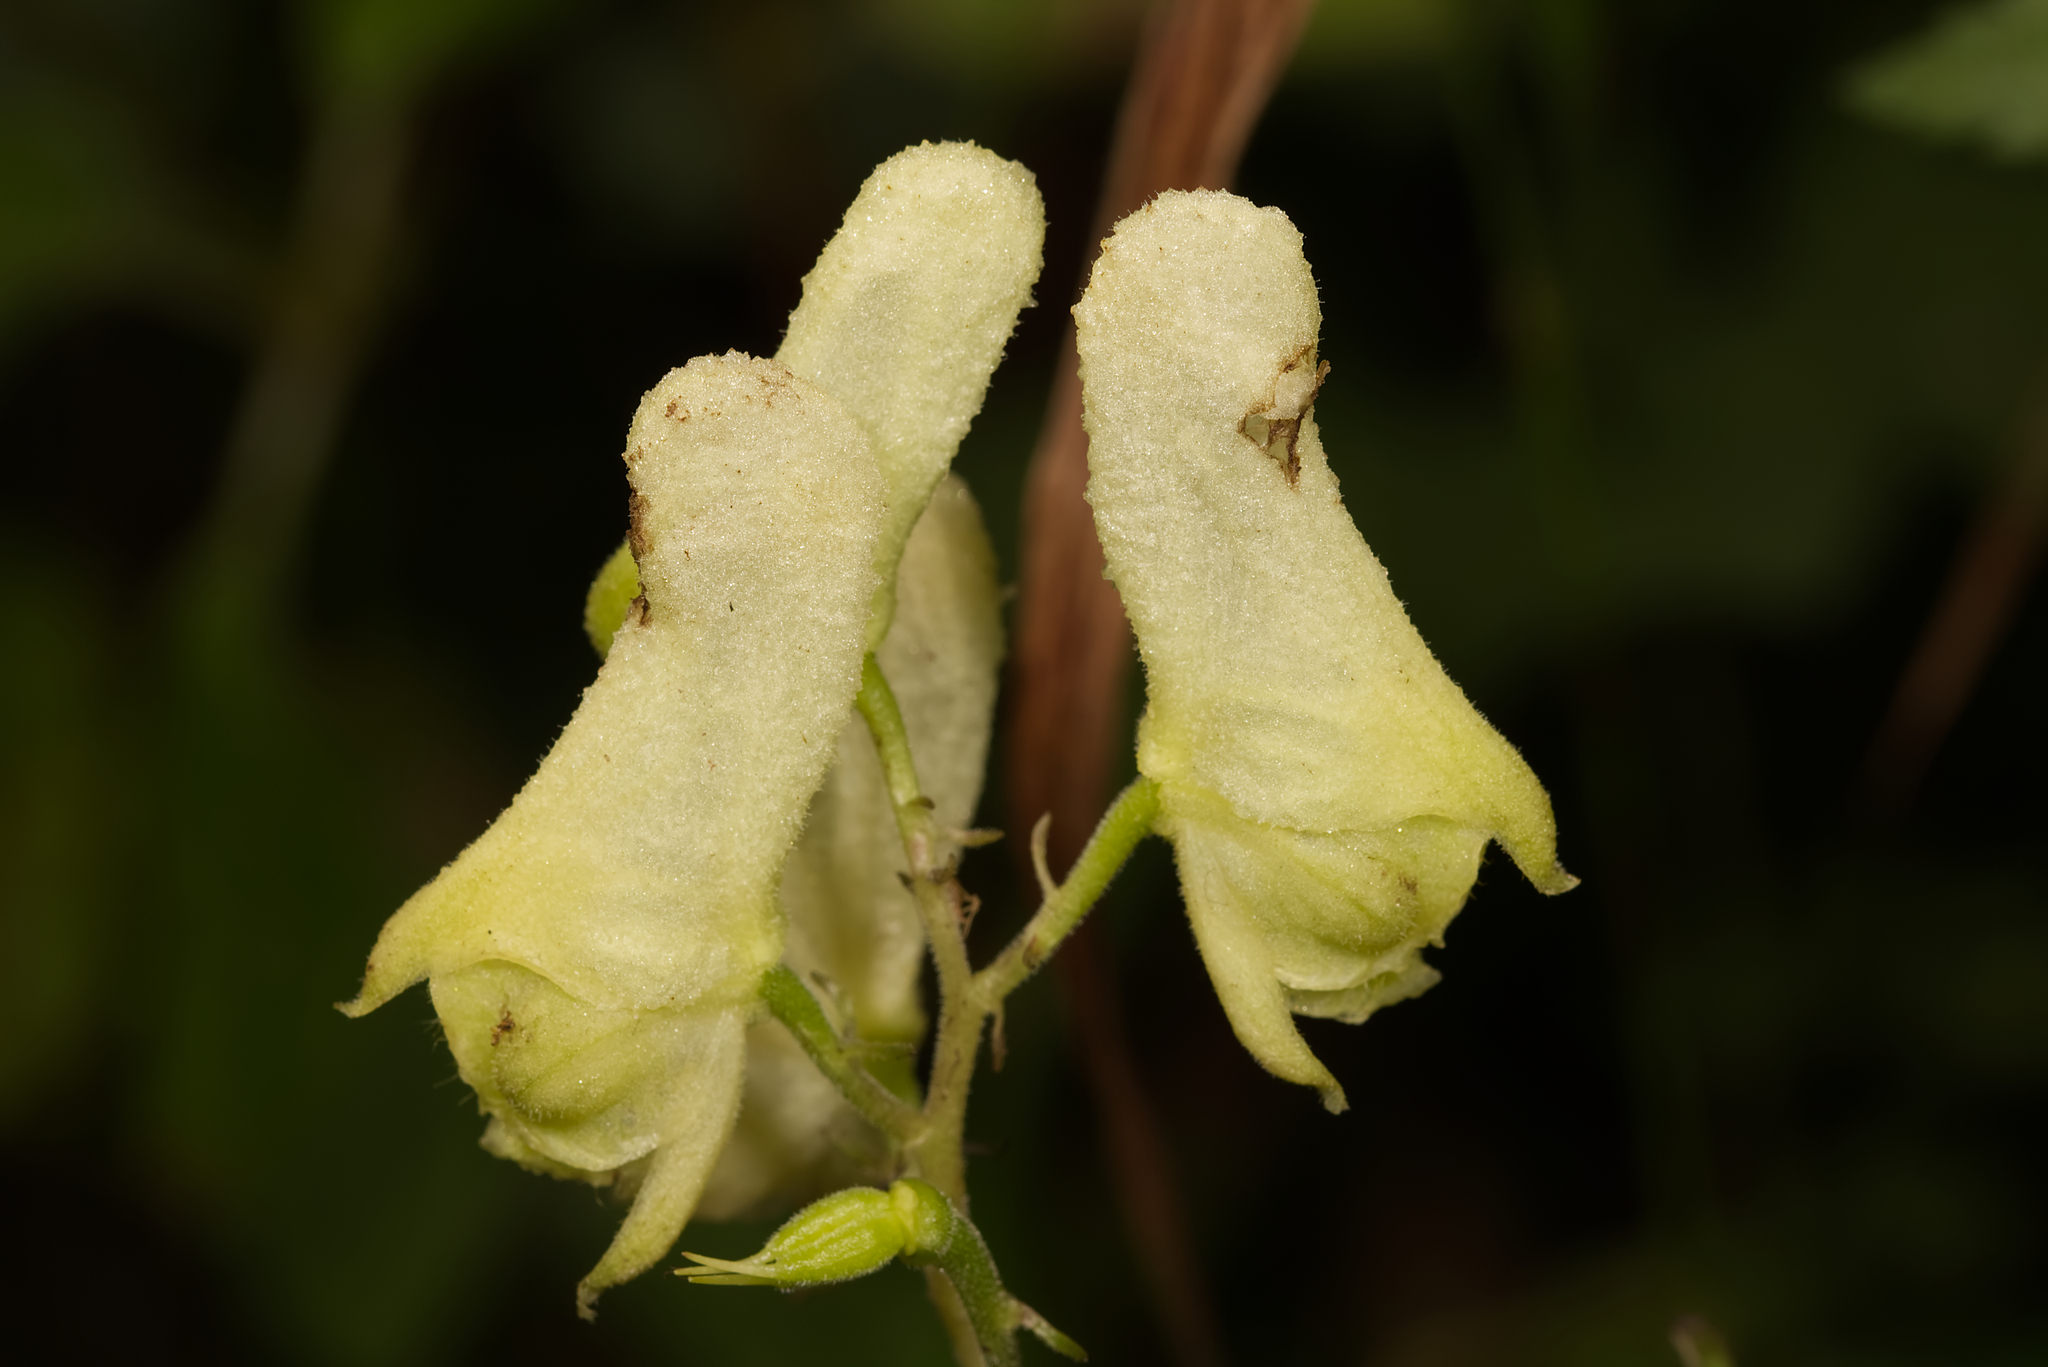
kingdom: Plantae
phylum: Tracheophyta
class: Magnoliopsida
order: Ranunculales
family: Ranunculaceae
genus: Aconitum
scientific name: Aconitum lycoctonum
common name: Wolf's-bane
